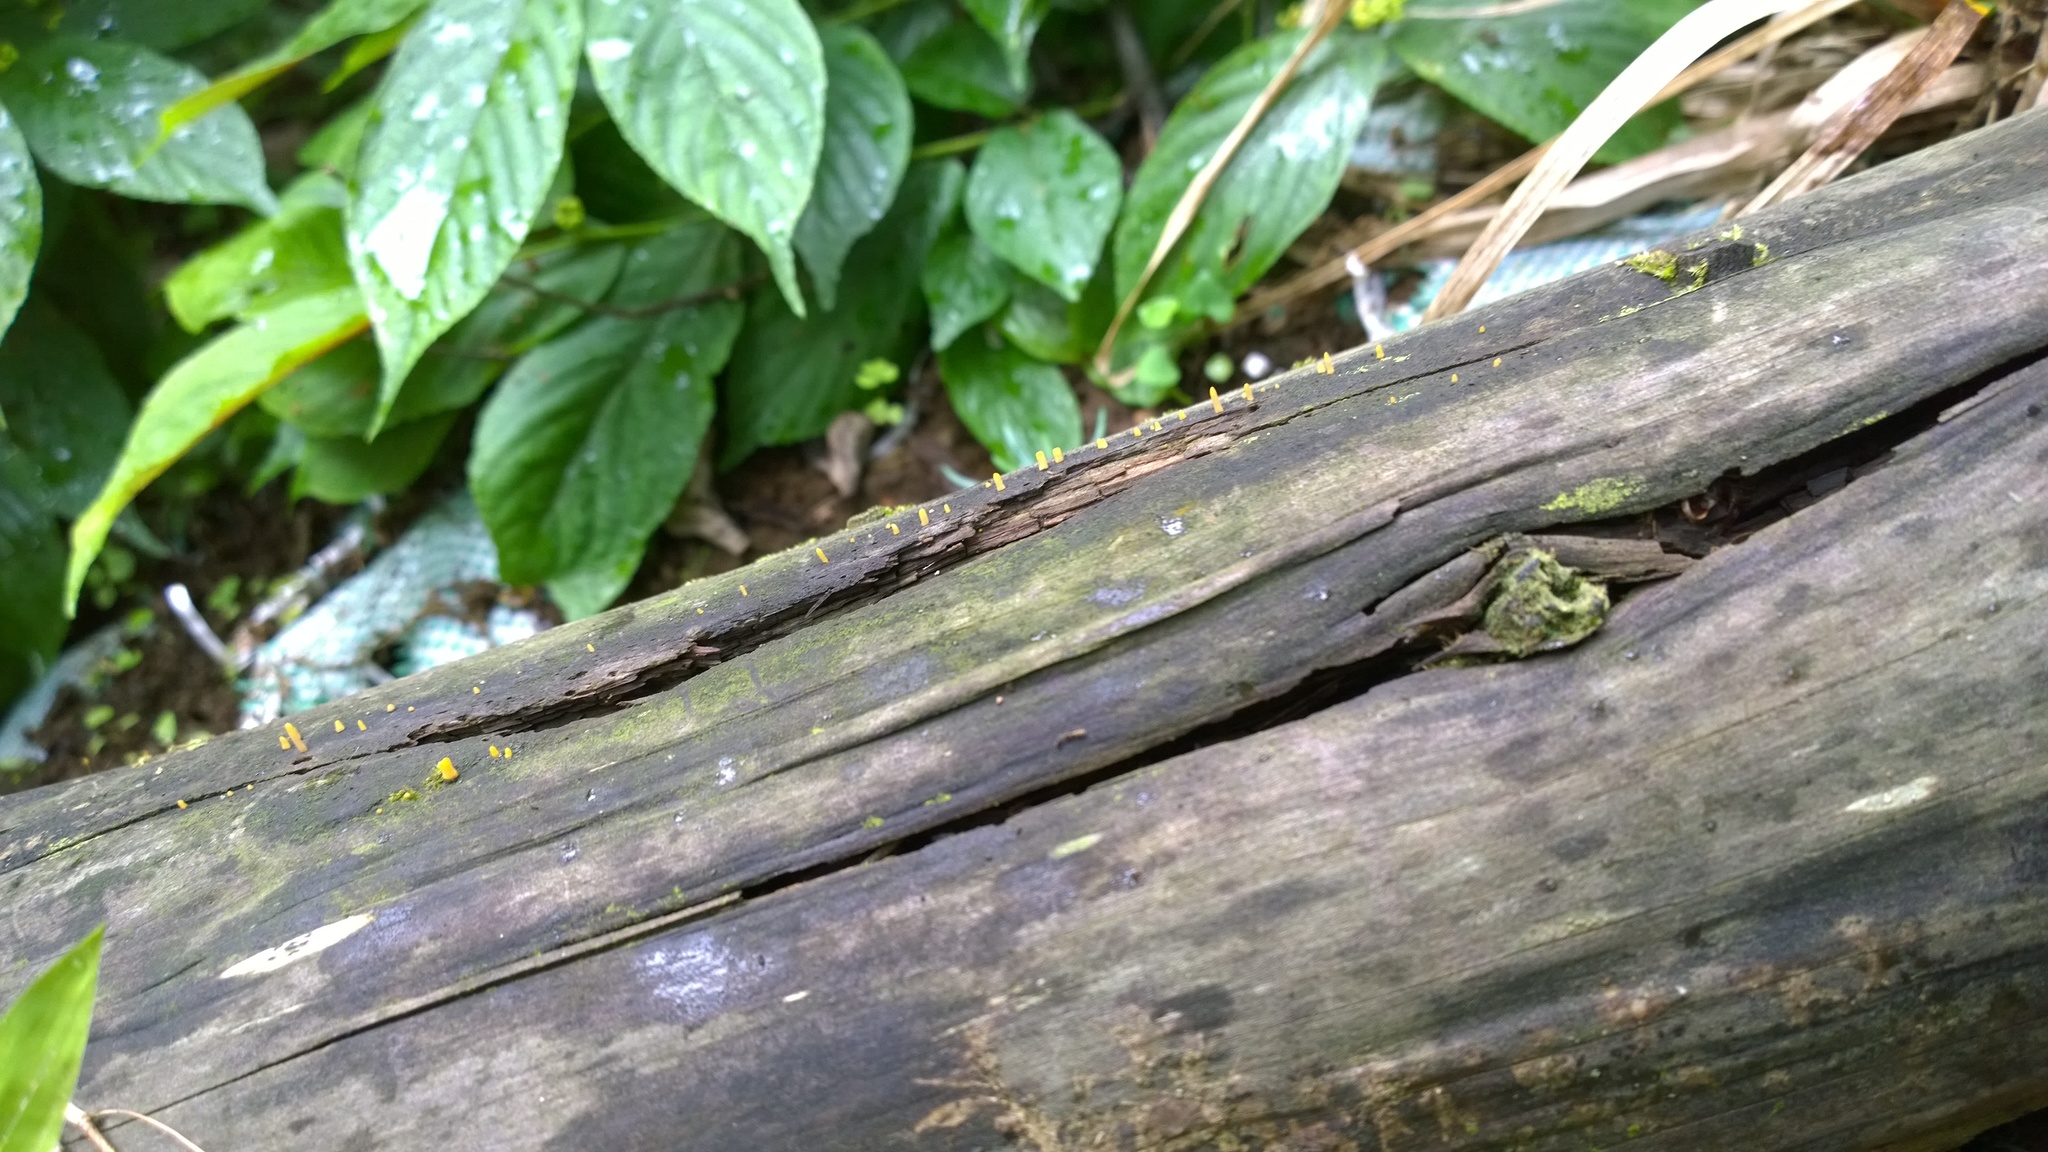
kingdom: Fungi
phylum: Basidiomycota
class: Dacrymycetes
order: Dacrymycetales
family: Dacrymycetaceae
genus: Calocera
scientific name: Calocera cornea
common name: Small stagshorn
